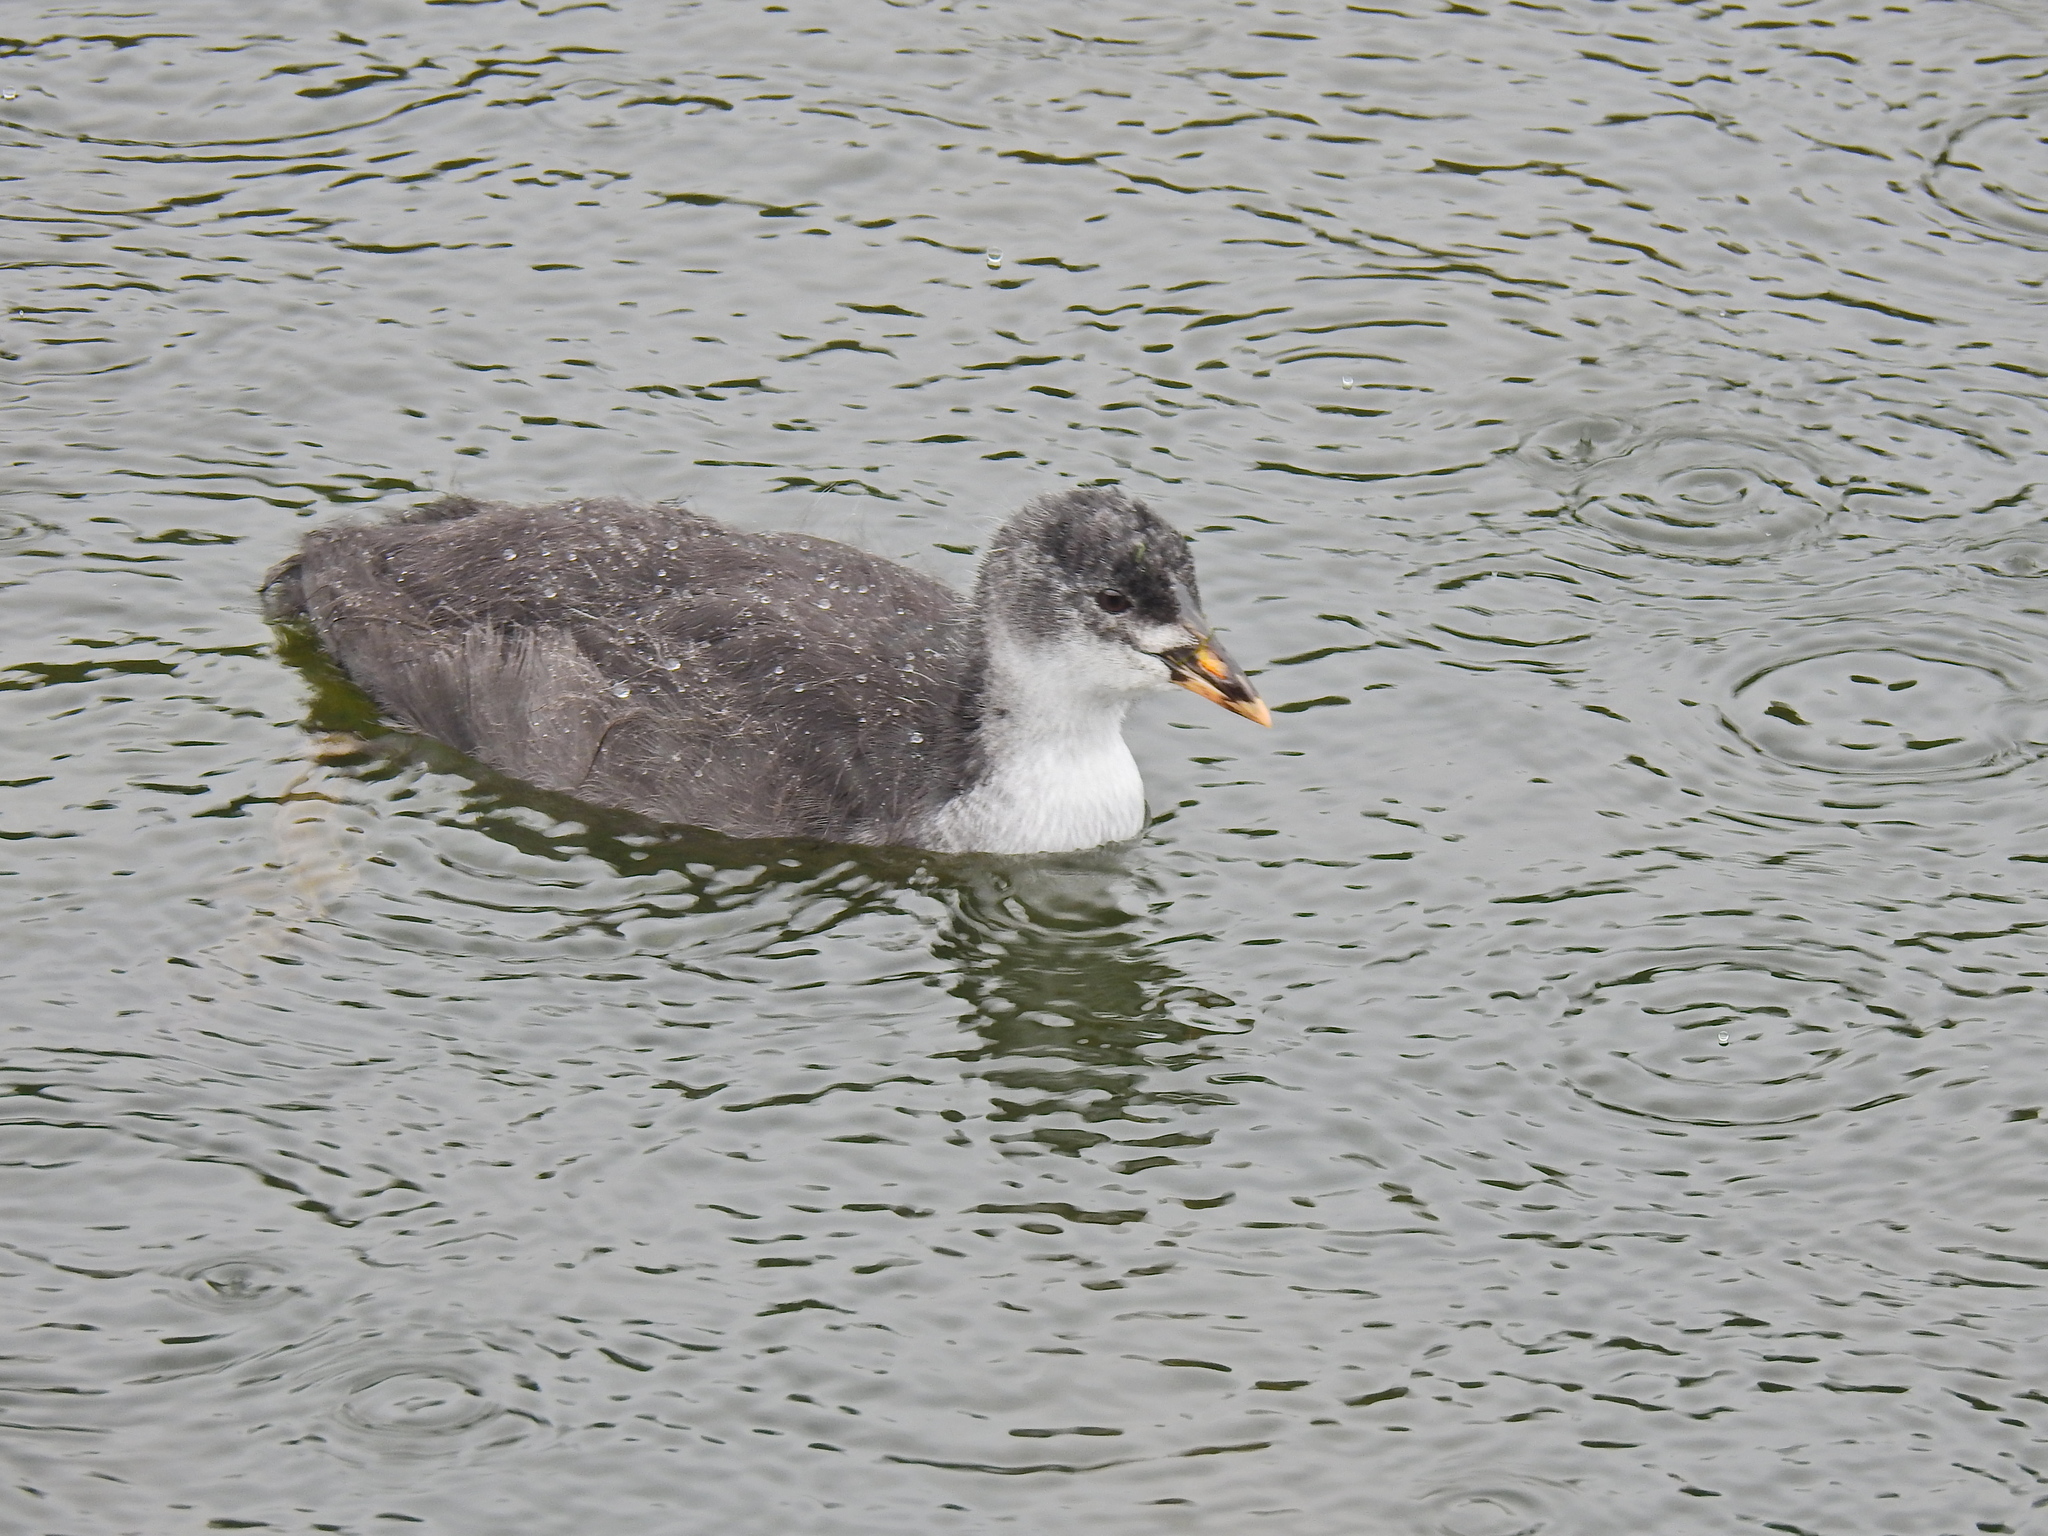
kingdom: Animalia
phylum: Chordata
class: Aves
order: Gruiformes
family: Rallidae
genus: Fulica
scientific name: Fulica atra
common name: Eurasian coot
